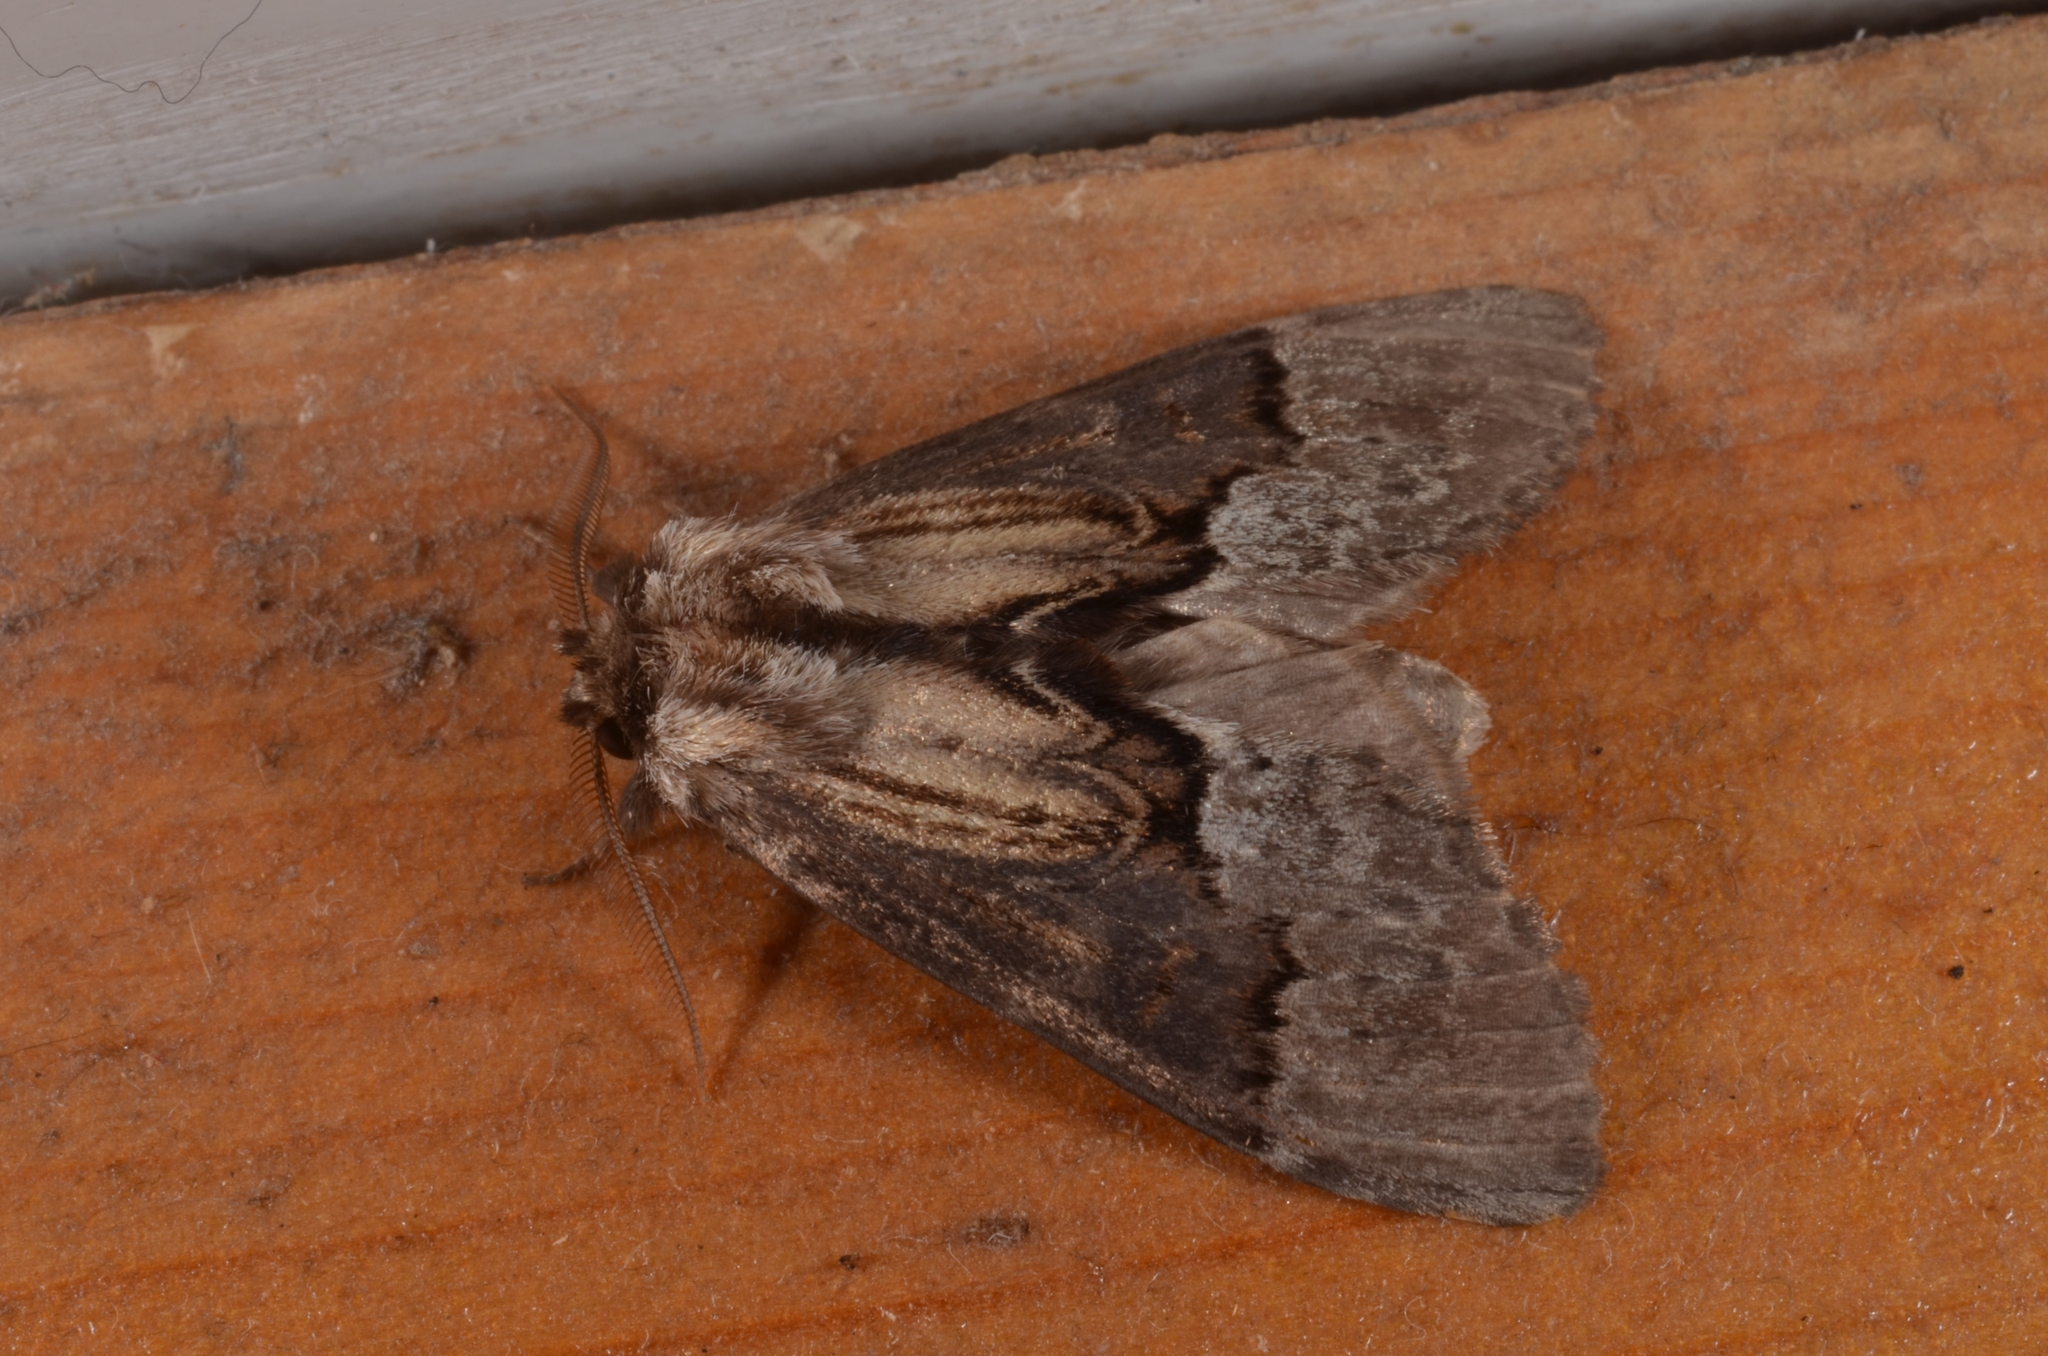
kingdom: Animalia
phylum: Arthropoda
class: Insecta
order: Lepidoptera
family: Notodontidae
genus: Semidonta
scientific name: Semidonta biloba
